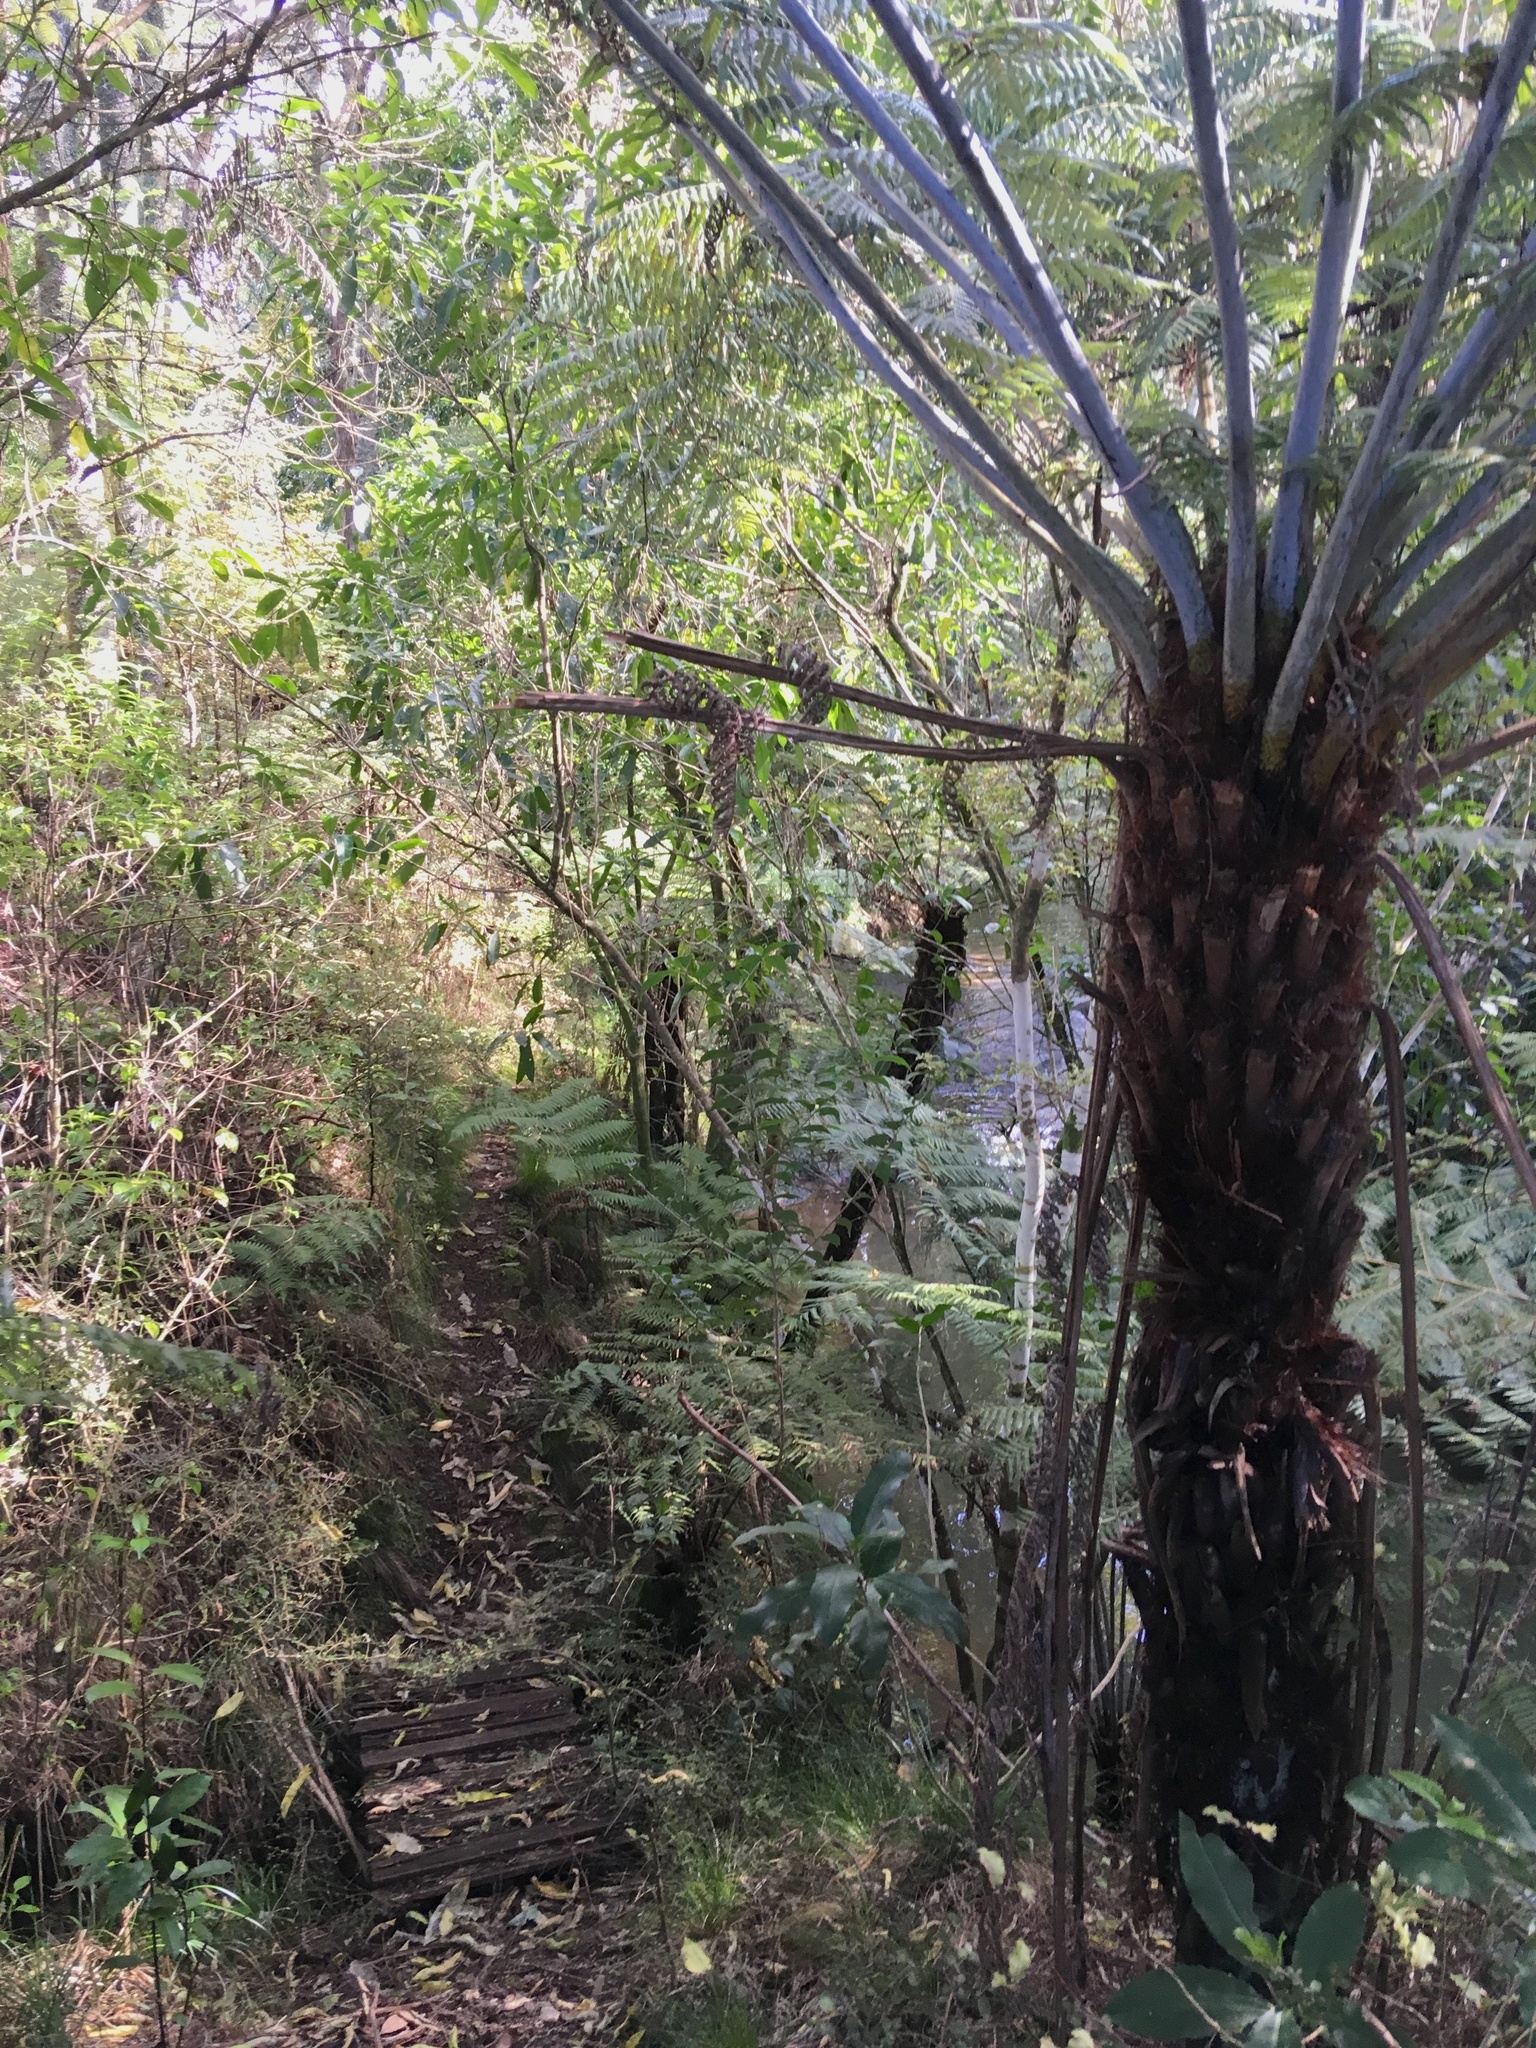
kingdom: Plantae
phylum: Tracheophyta
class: Polypodiopsida
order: Cyatheales
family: Cyatheaceae
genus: Alsophila
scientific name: Alsophila dealbata
